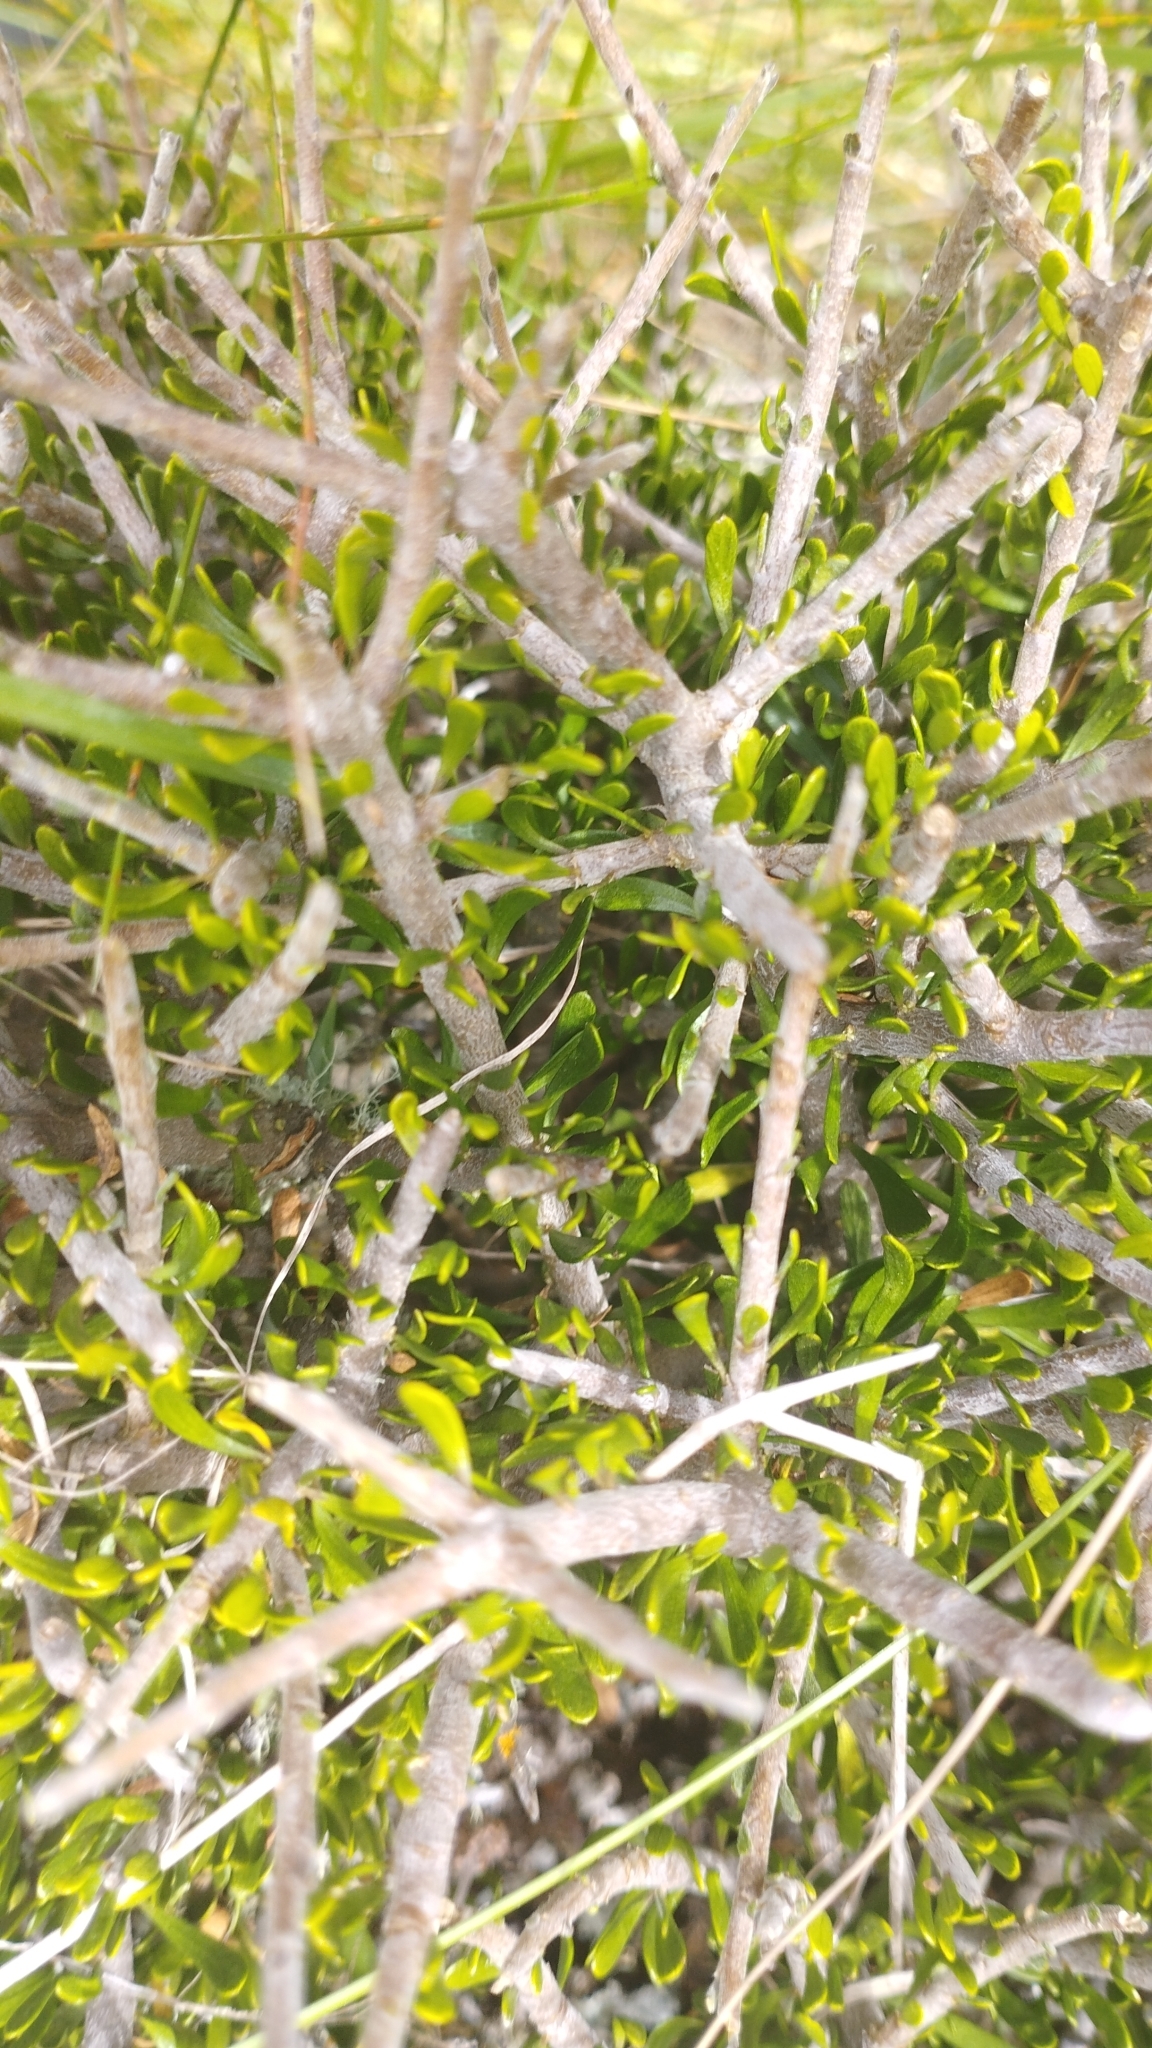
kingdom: Plantae
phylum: Tracheophyta
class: Magnoliopsida
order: Malpighiales
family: Violaceae
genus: Melicytus
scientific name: Melicytus alpinus
